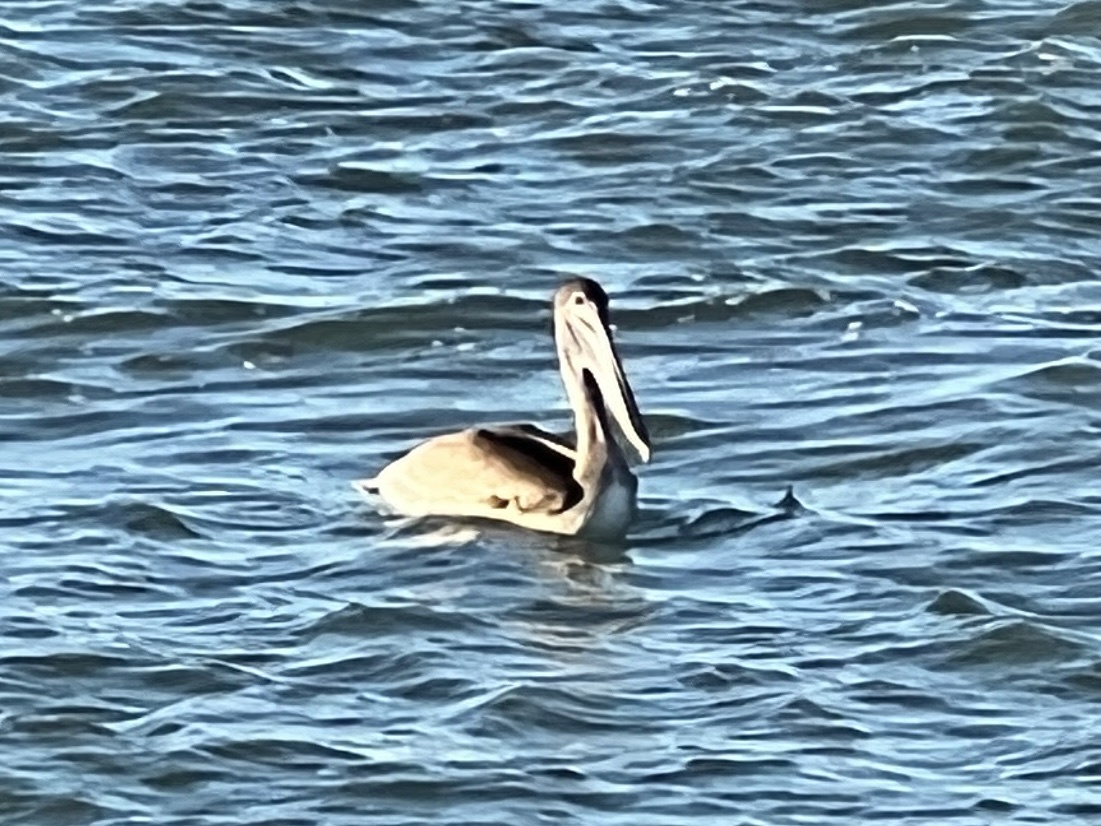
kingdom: Animalia
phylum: Chordata
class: Aves
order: Pelecaniformes
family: Pelecanidae
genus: Pelecanus
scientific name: Pelecanus occidentalis
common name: Brown pelican
